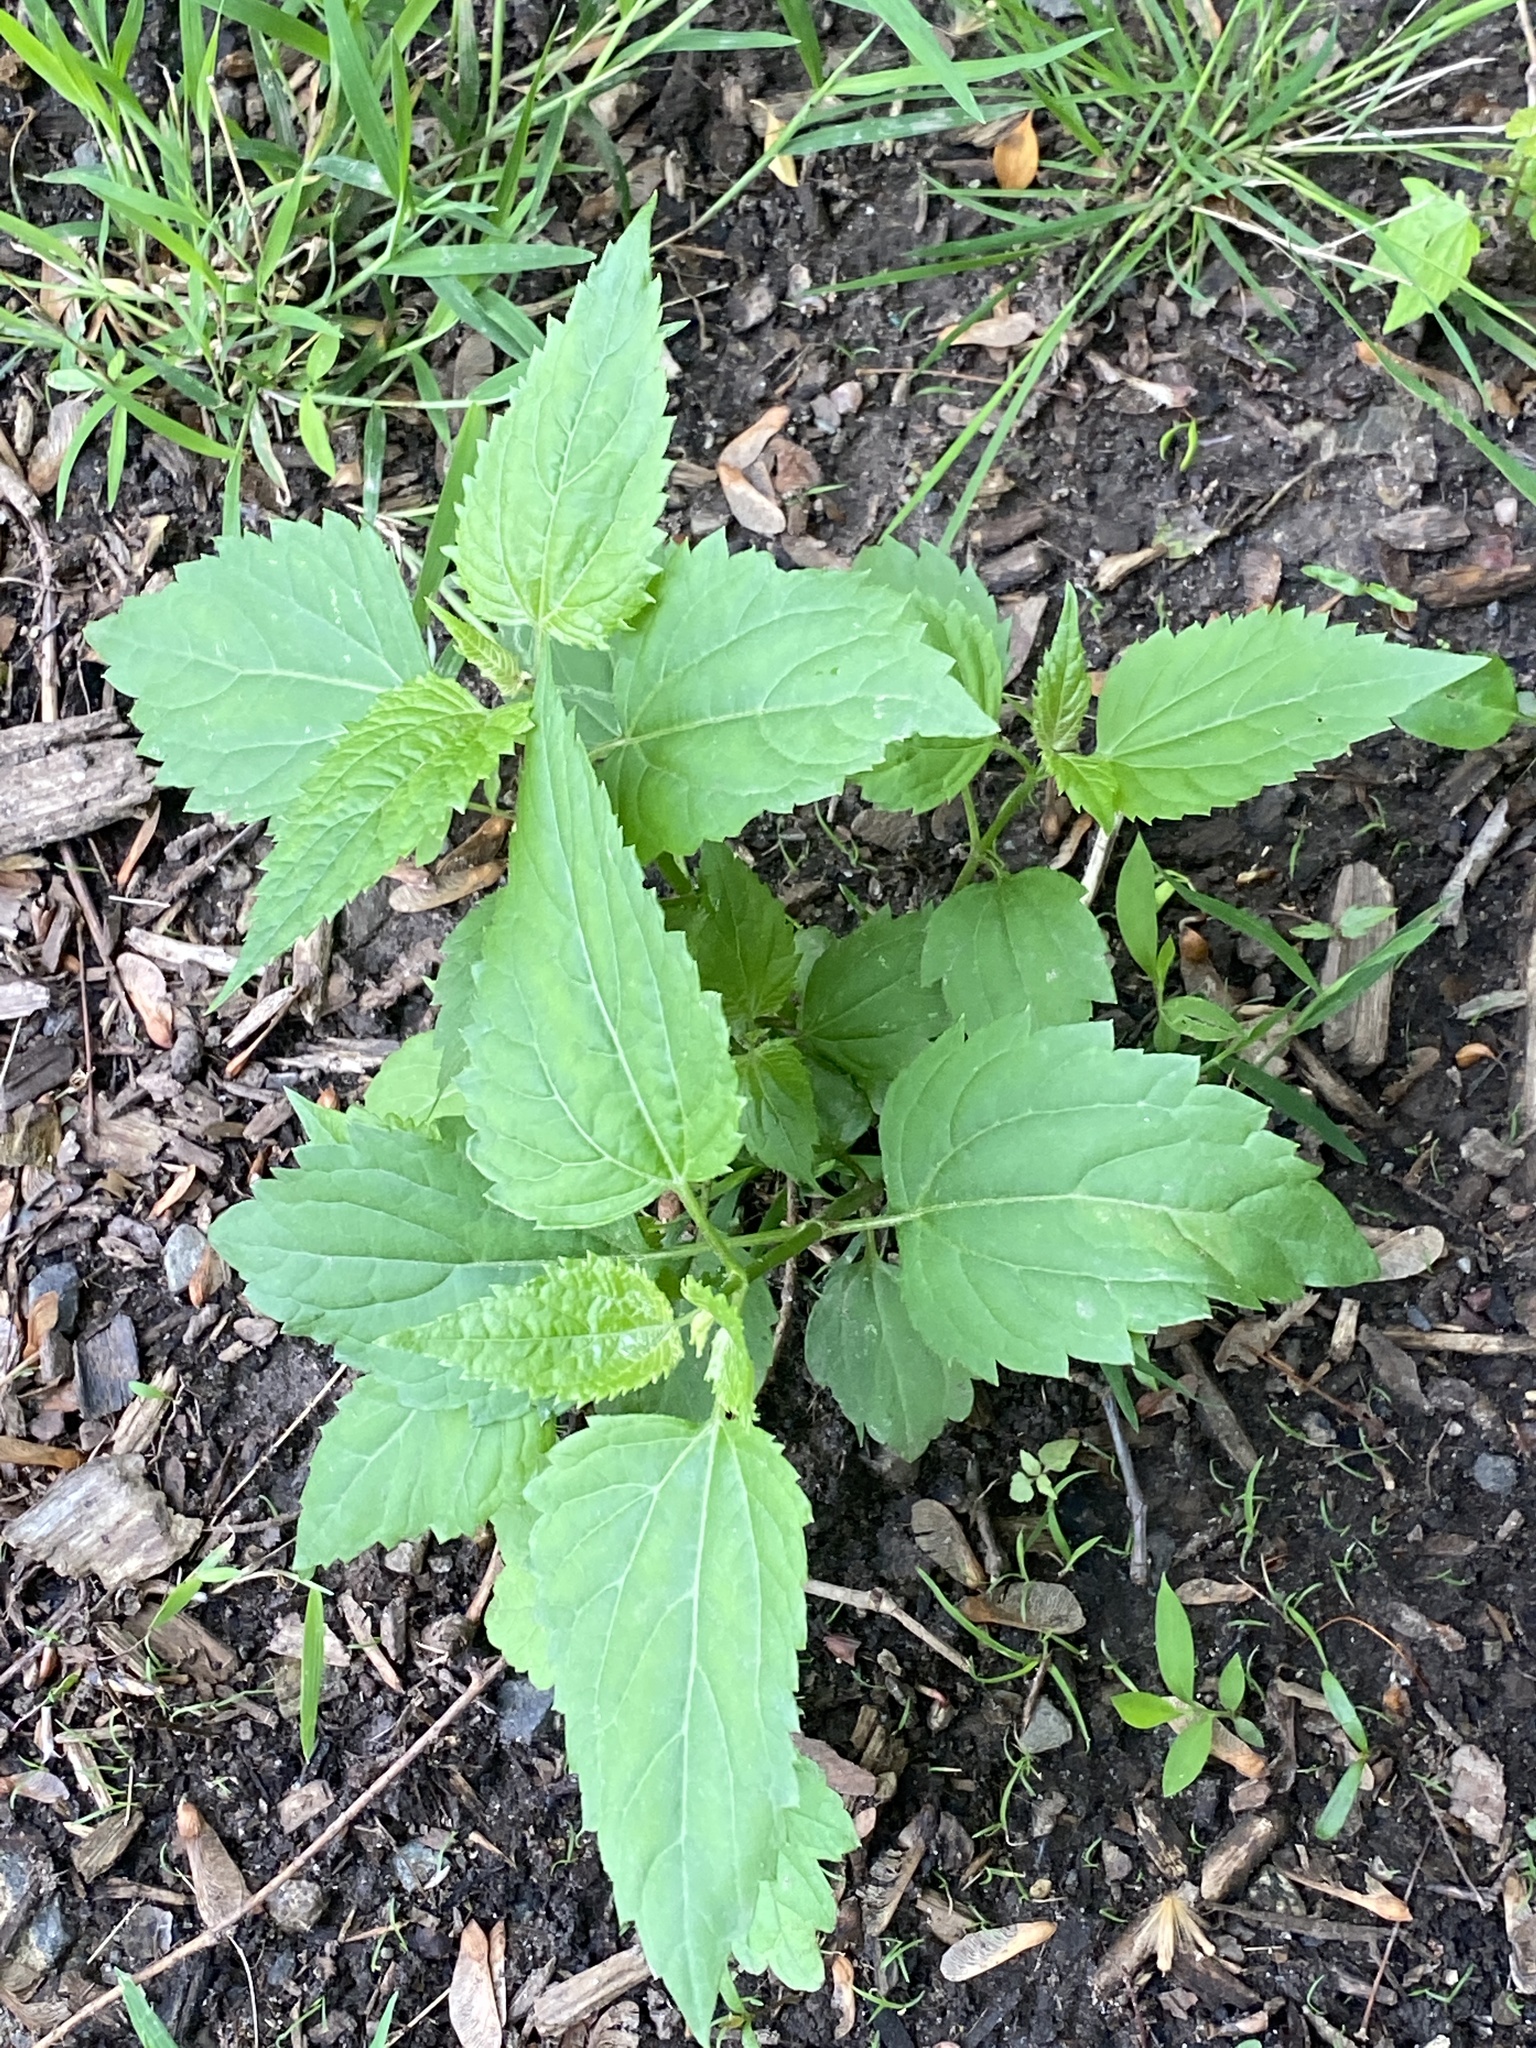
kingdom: Plantae
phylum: Tracheophyta
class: Magnoliopsida
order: Asterales
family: Asteraceae
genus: Ageratina
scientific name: Ageratina altissima
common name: White snakeroot
